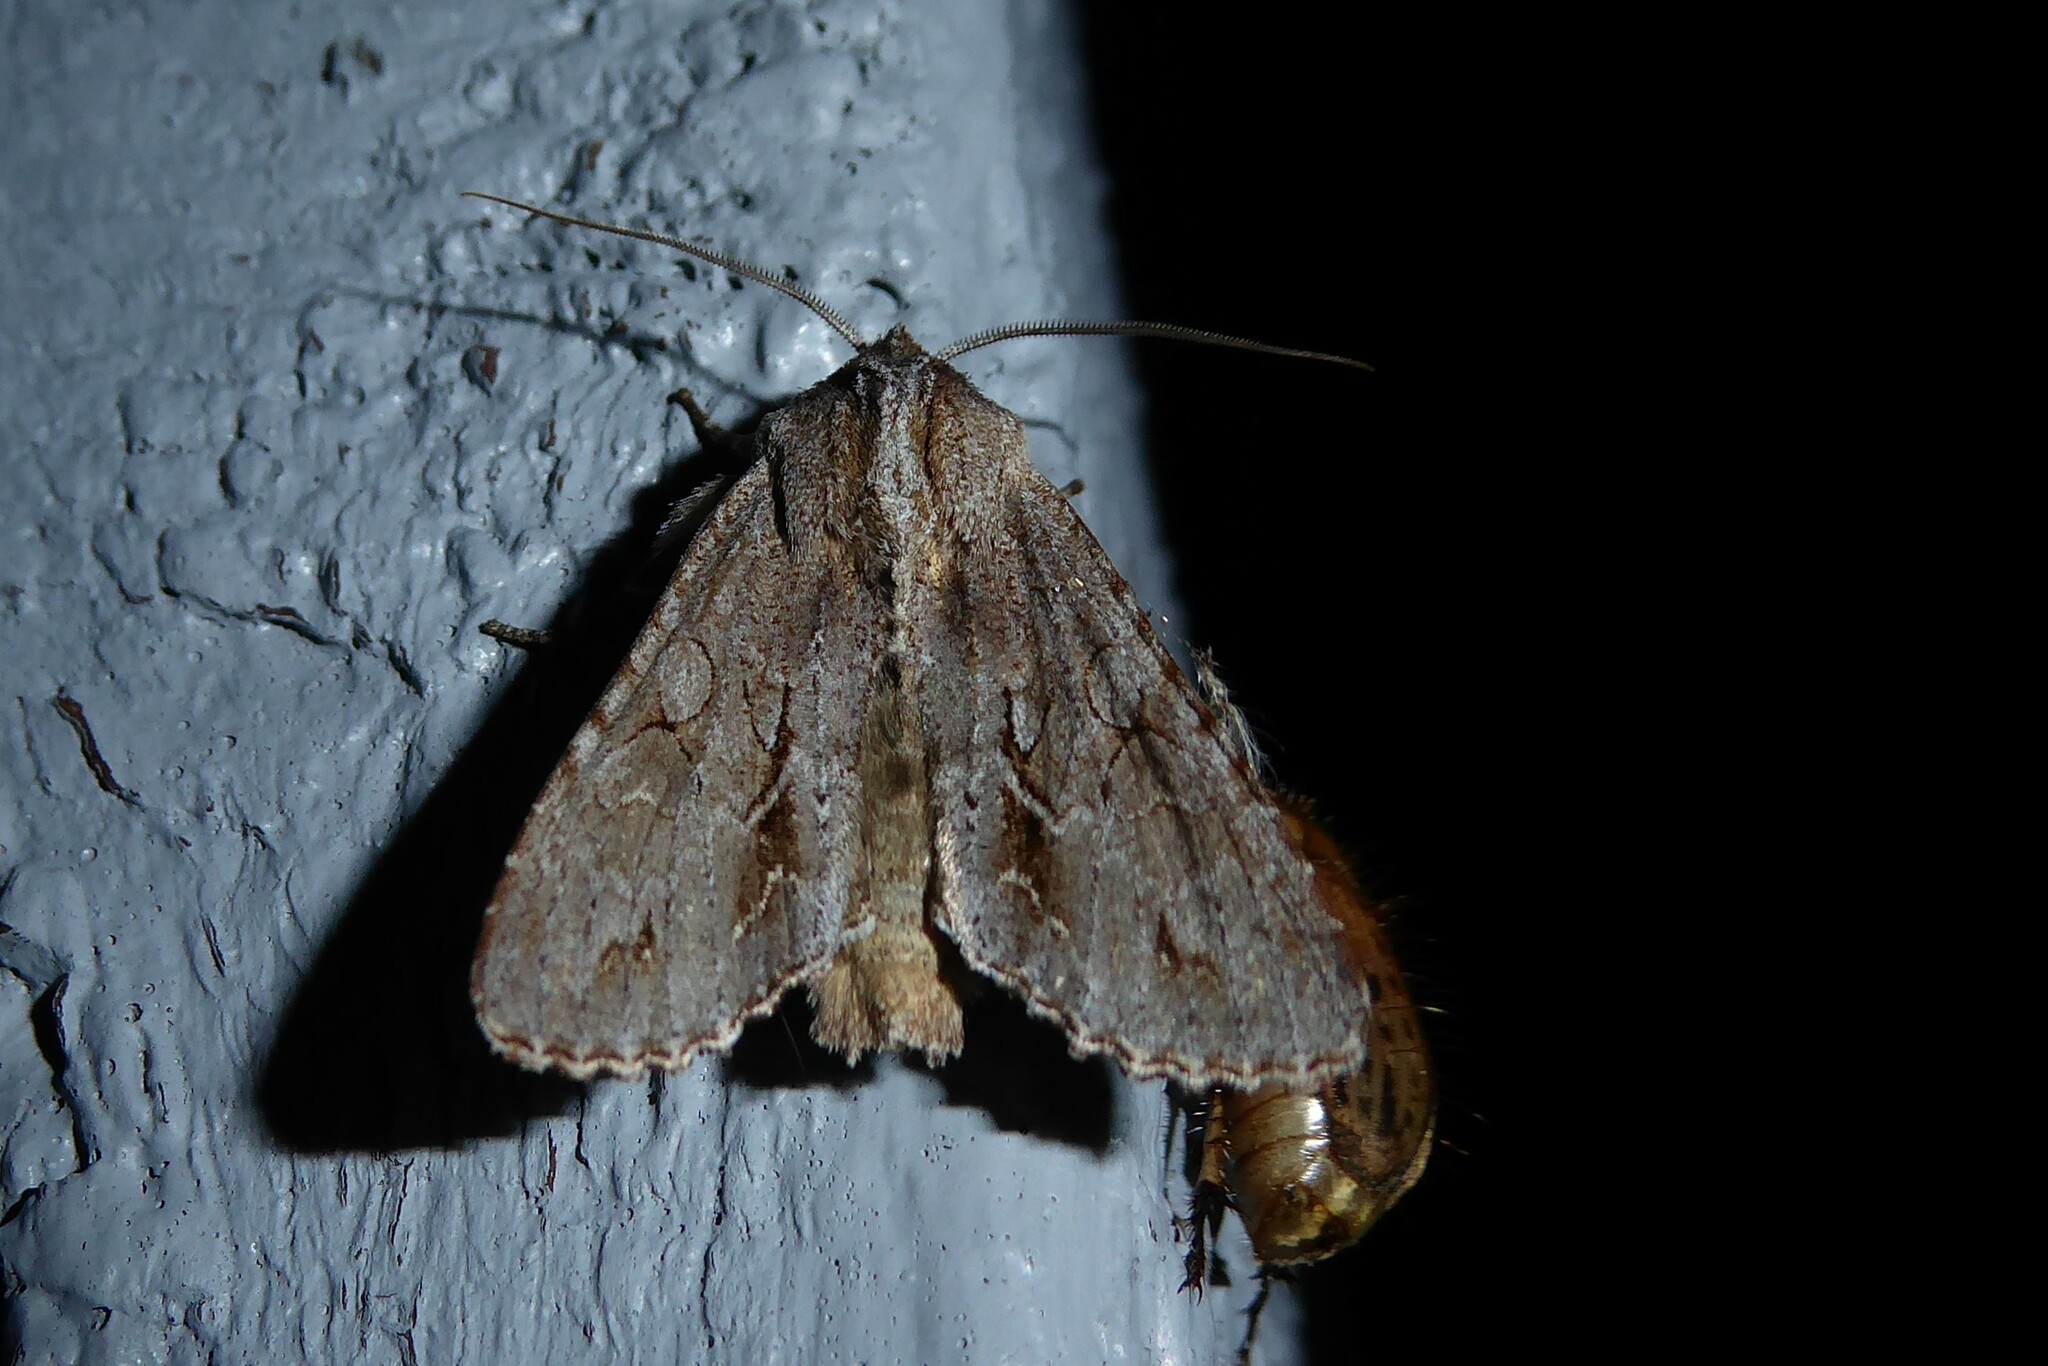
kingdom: Animalia
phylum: Arthropoda
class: Insecta
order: Lepidoptera
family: Noctuidae
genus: Ichneutica
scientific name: Ichneutica
